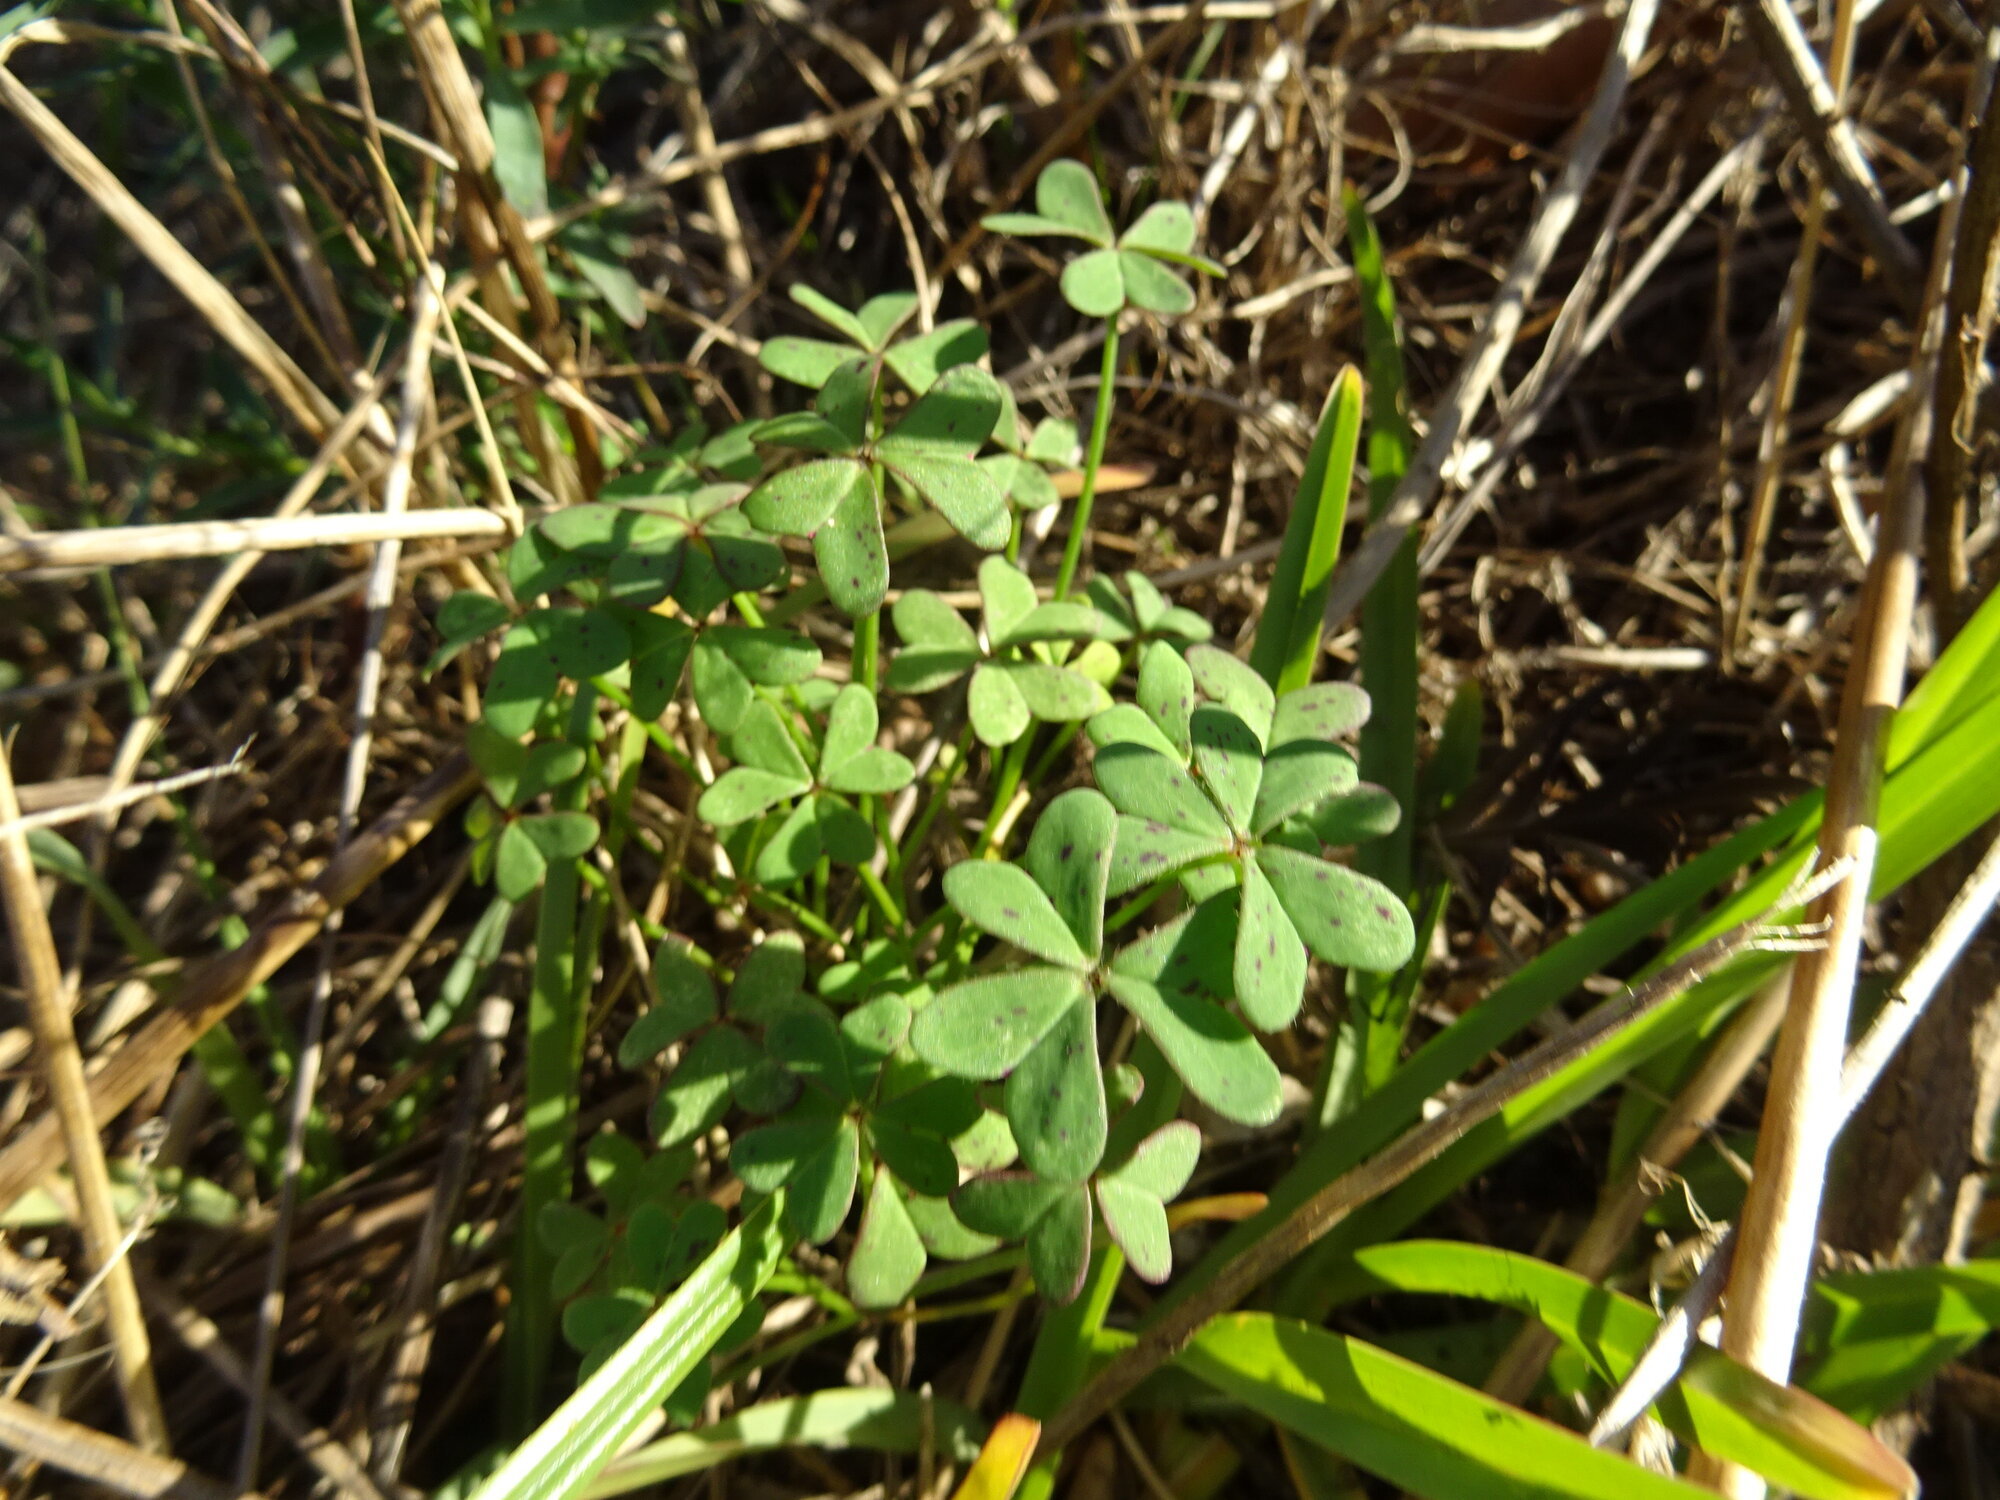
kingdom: Plantae
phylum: Tracheophyta
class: Magnoliopsida
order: Oxalidales
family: Oxalidaceae
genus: Oxalis
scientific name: Oxalis pes-caprae
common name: Bermuda-buttercup
